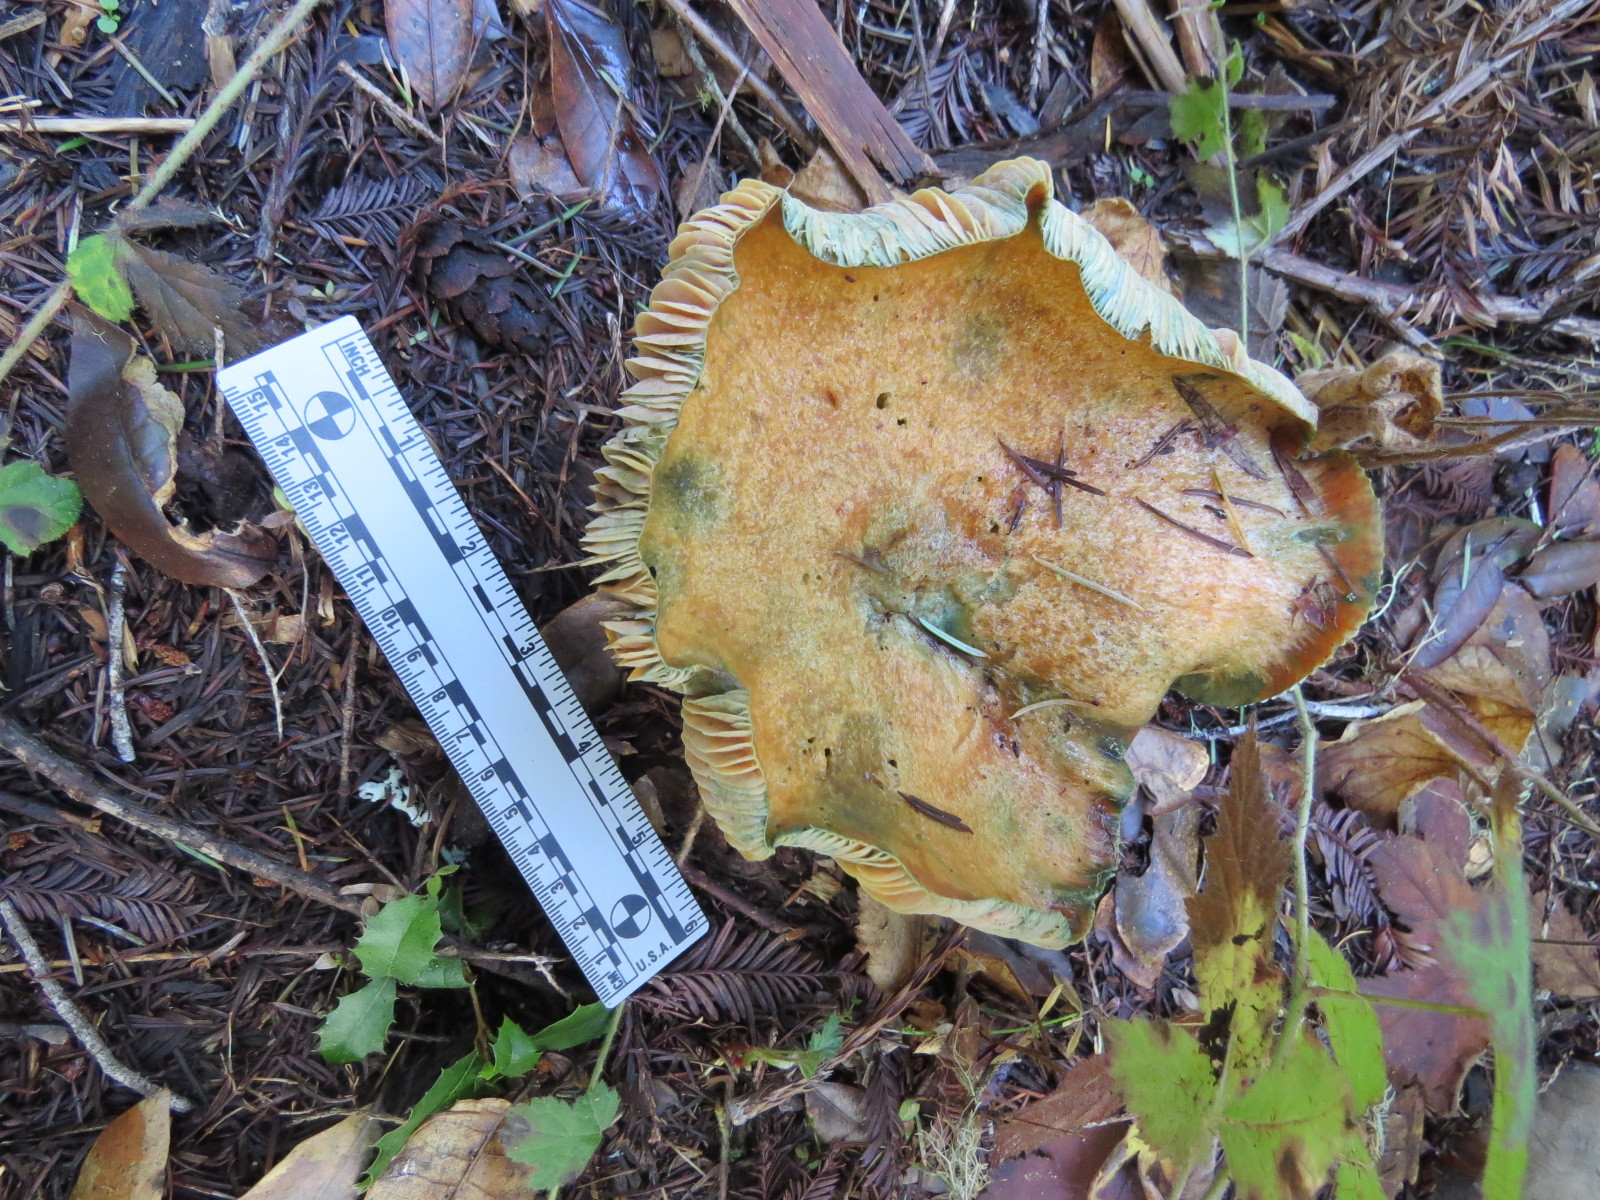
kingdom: Fungi
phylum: Basidiomycota
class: Agaricomycetes
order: Russulales
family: Russulaceae
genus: Lactarius
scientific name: Lactarius deliciosus
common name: Saffron milk-cap
